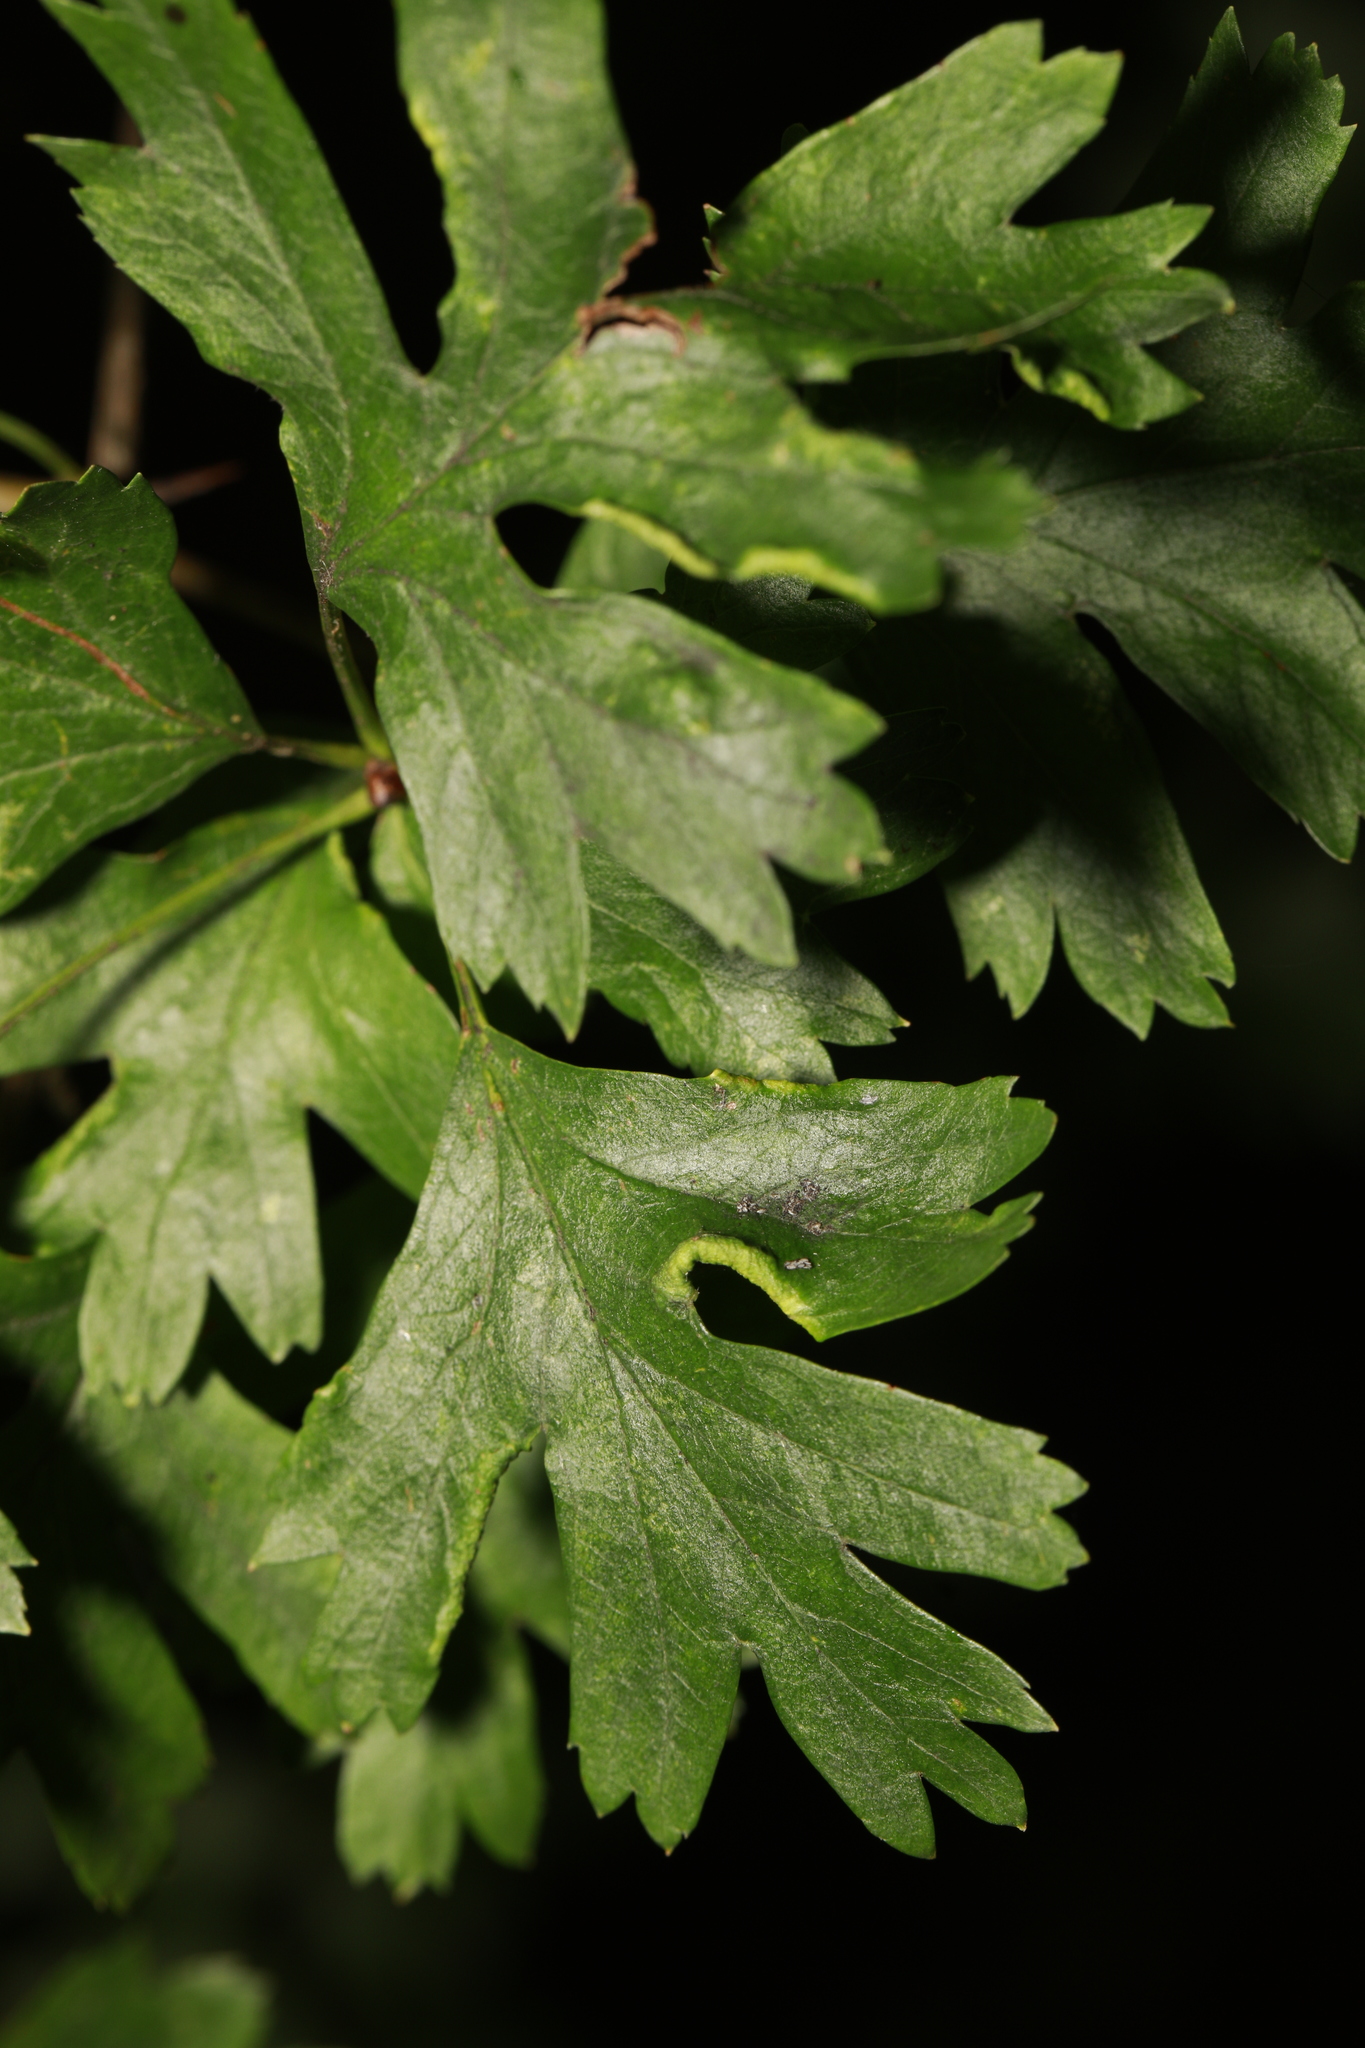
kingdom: Animalia
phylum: Arthropoda
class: Arachnida
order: Trombidiformes
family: Eriophyidae
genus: Phyllocoptes
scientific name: Phyllocoptes goniothorax
